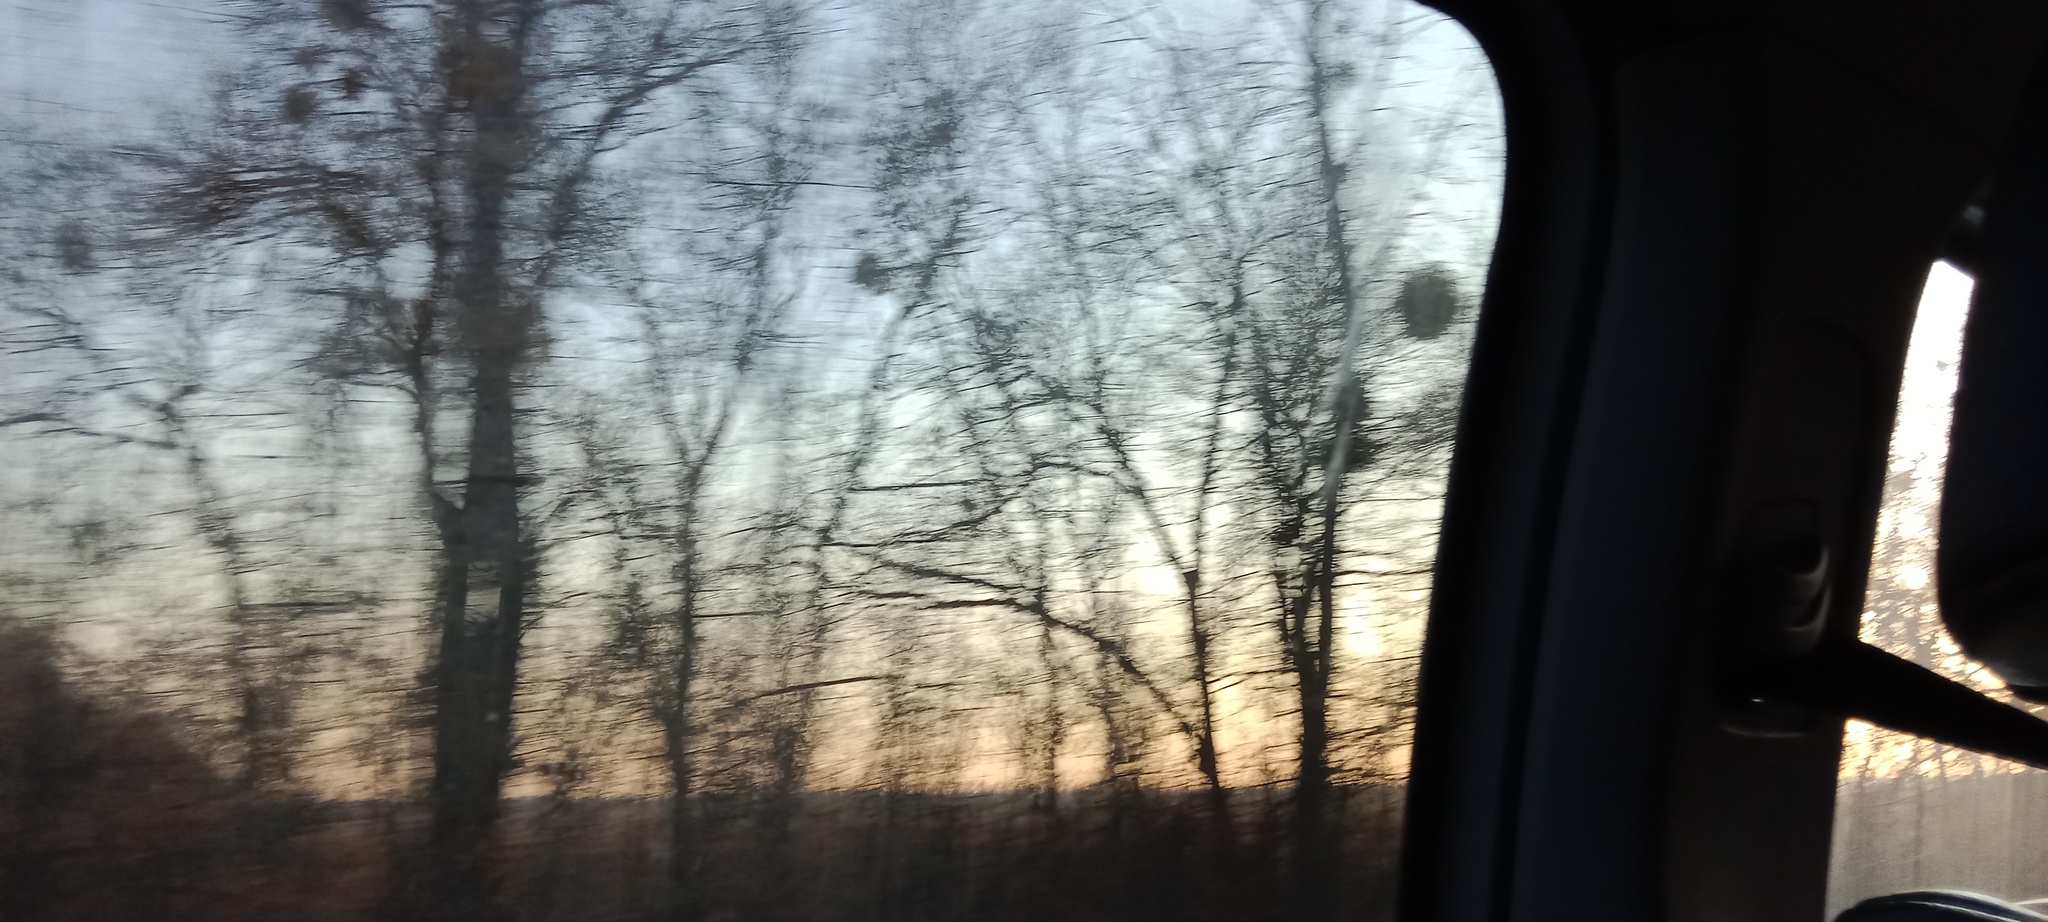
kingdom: Plantae
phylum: Tracheophyta
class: Magnoliopsida
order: Santalales
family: Viscaceae
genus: Viscum
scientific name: Viscum album
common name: Mistletoe
